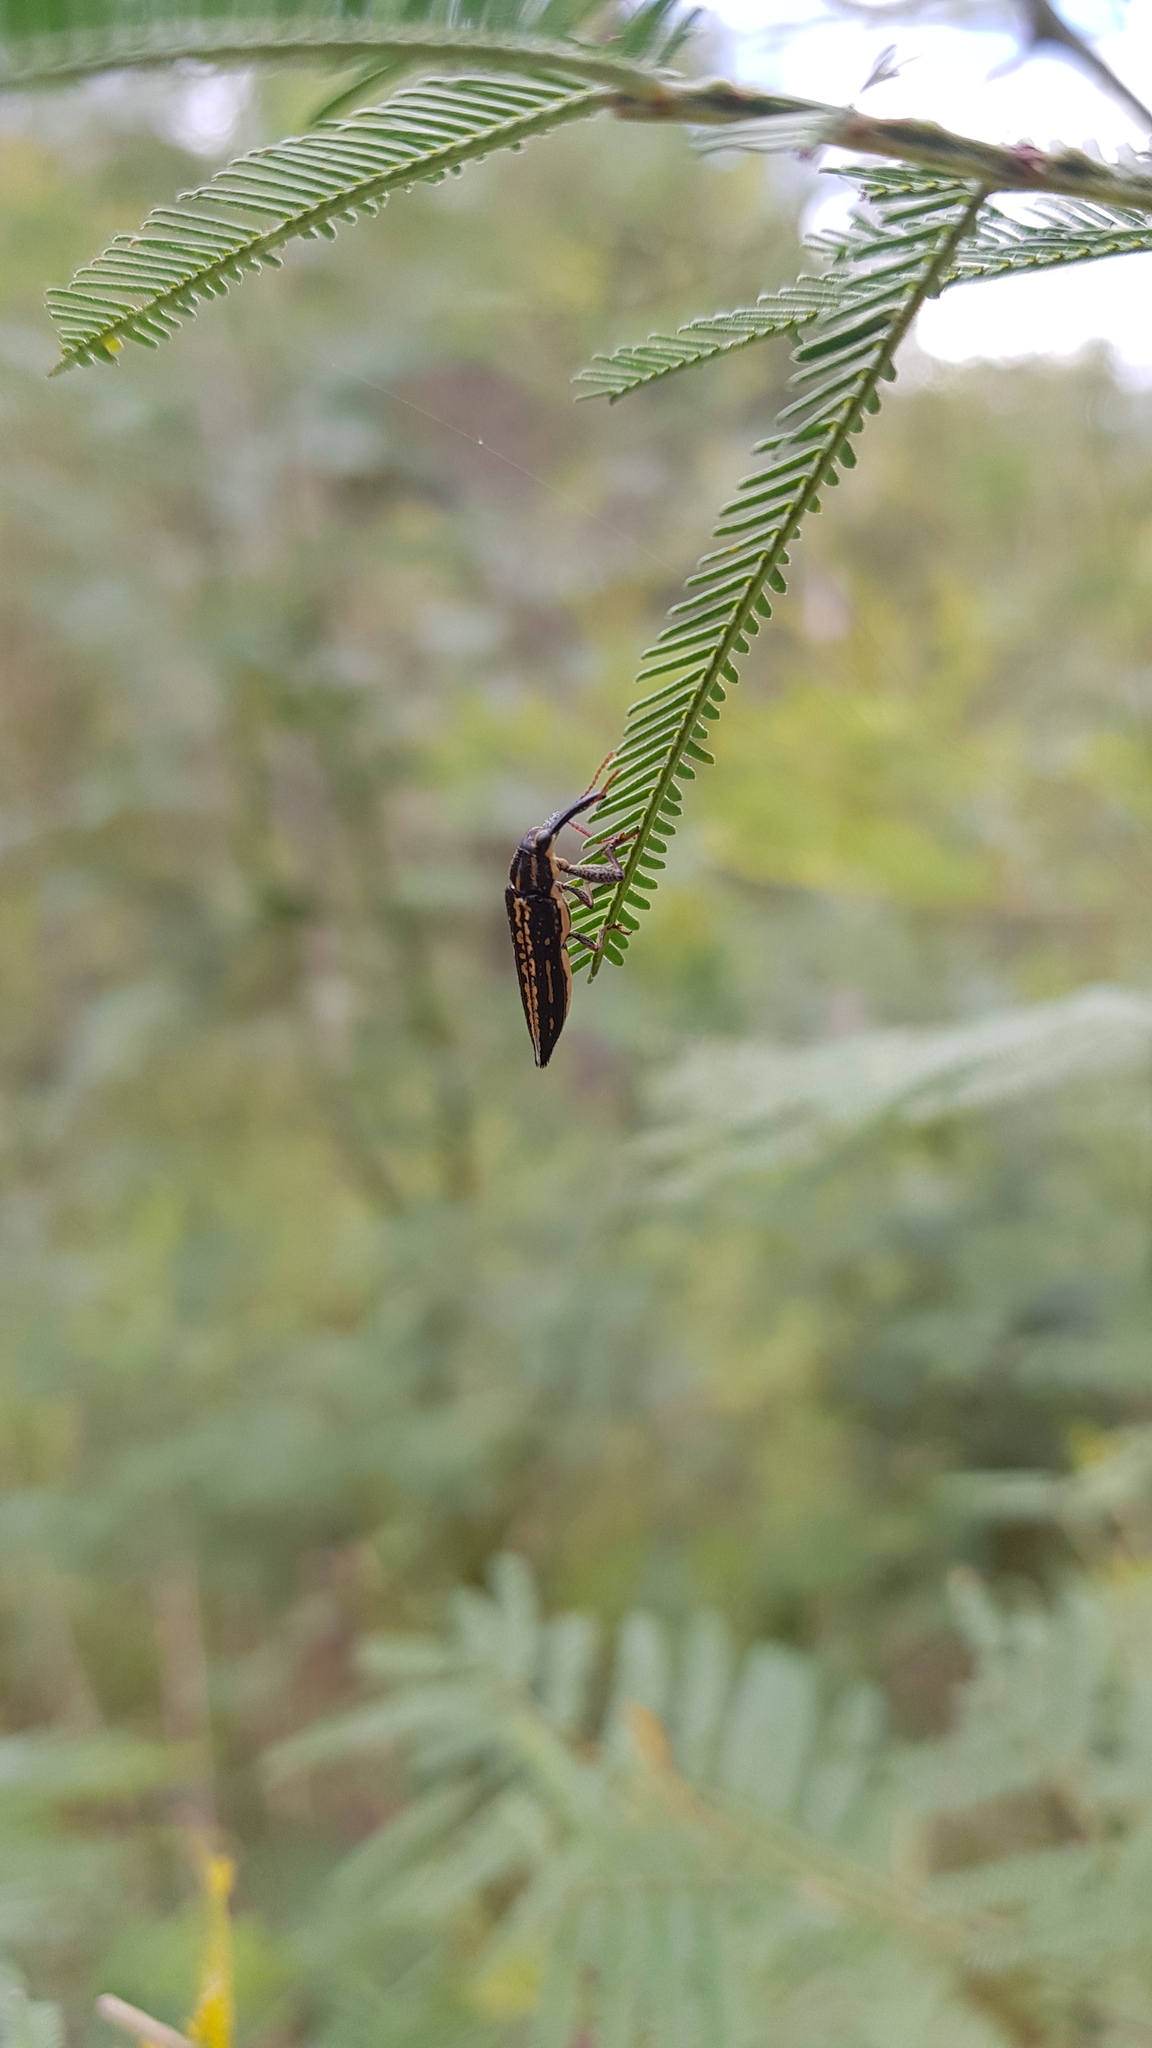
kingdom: Animalia
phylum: Arthropoda
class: Insecta
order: Coleoptera
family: Belidae
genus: Rhinotia
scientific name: Rhinotia lineata
